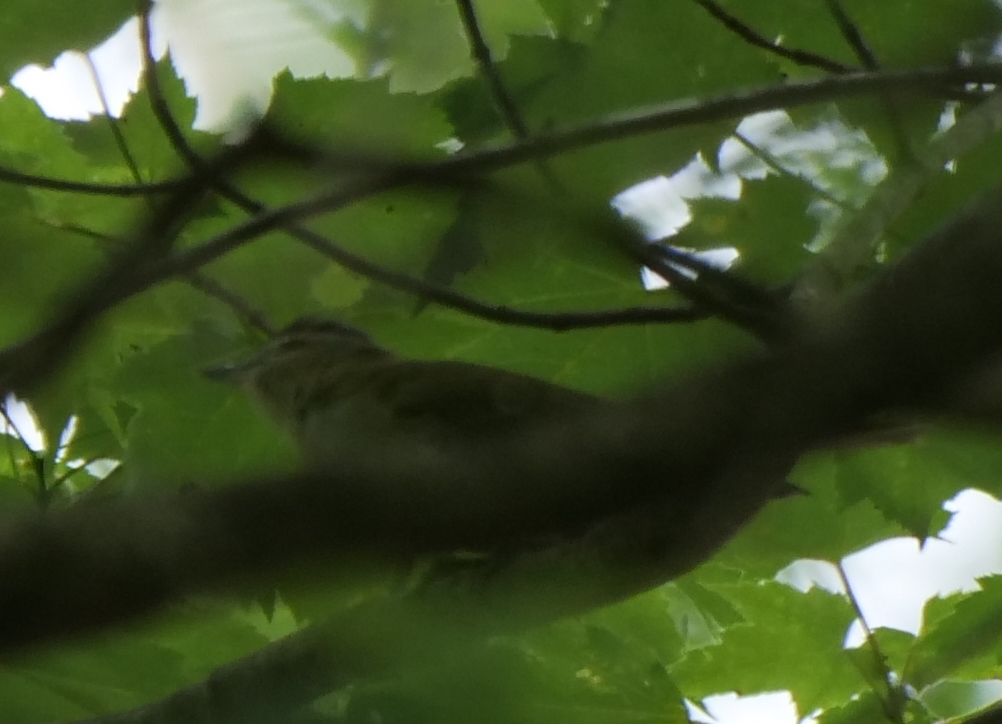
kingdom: Animalia
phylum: Chordata
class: Aves
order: Passeriformes
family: Vireonidae
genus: Vireo
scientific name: Vireo olivaceus
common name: Red-eyed vireo
